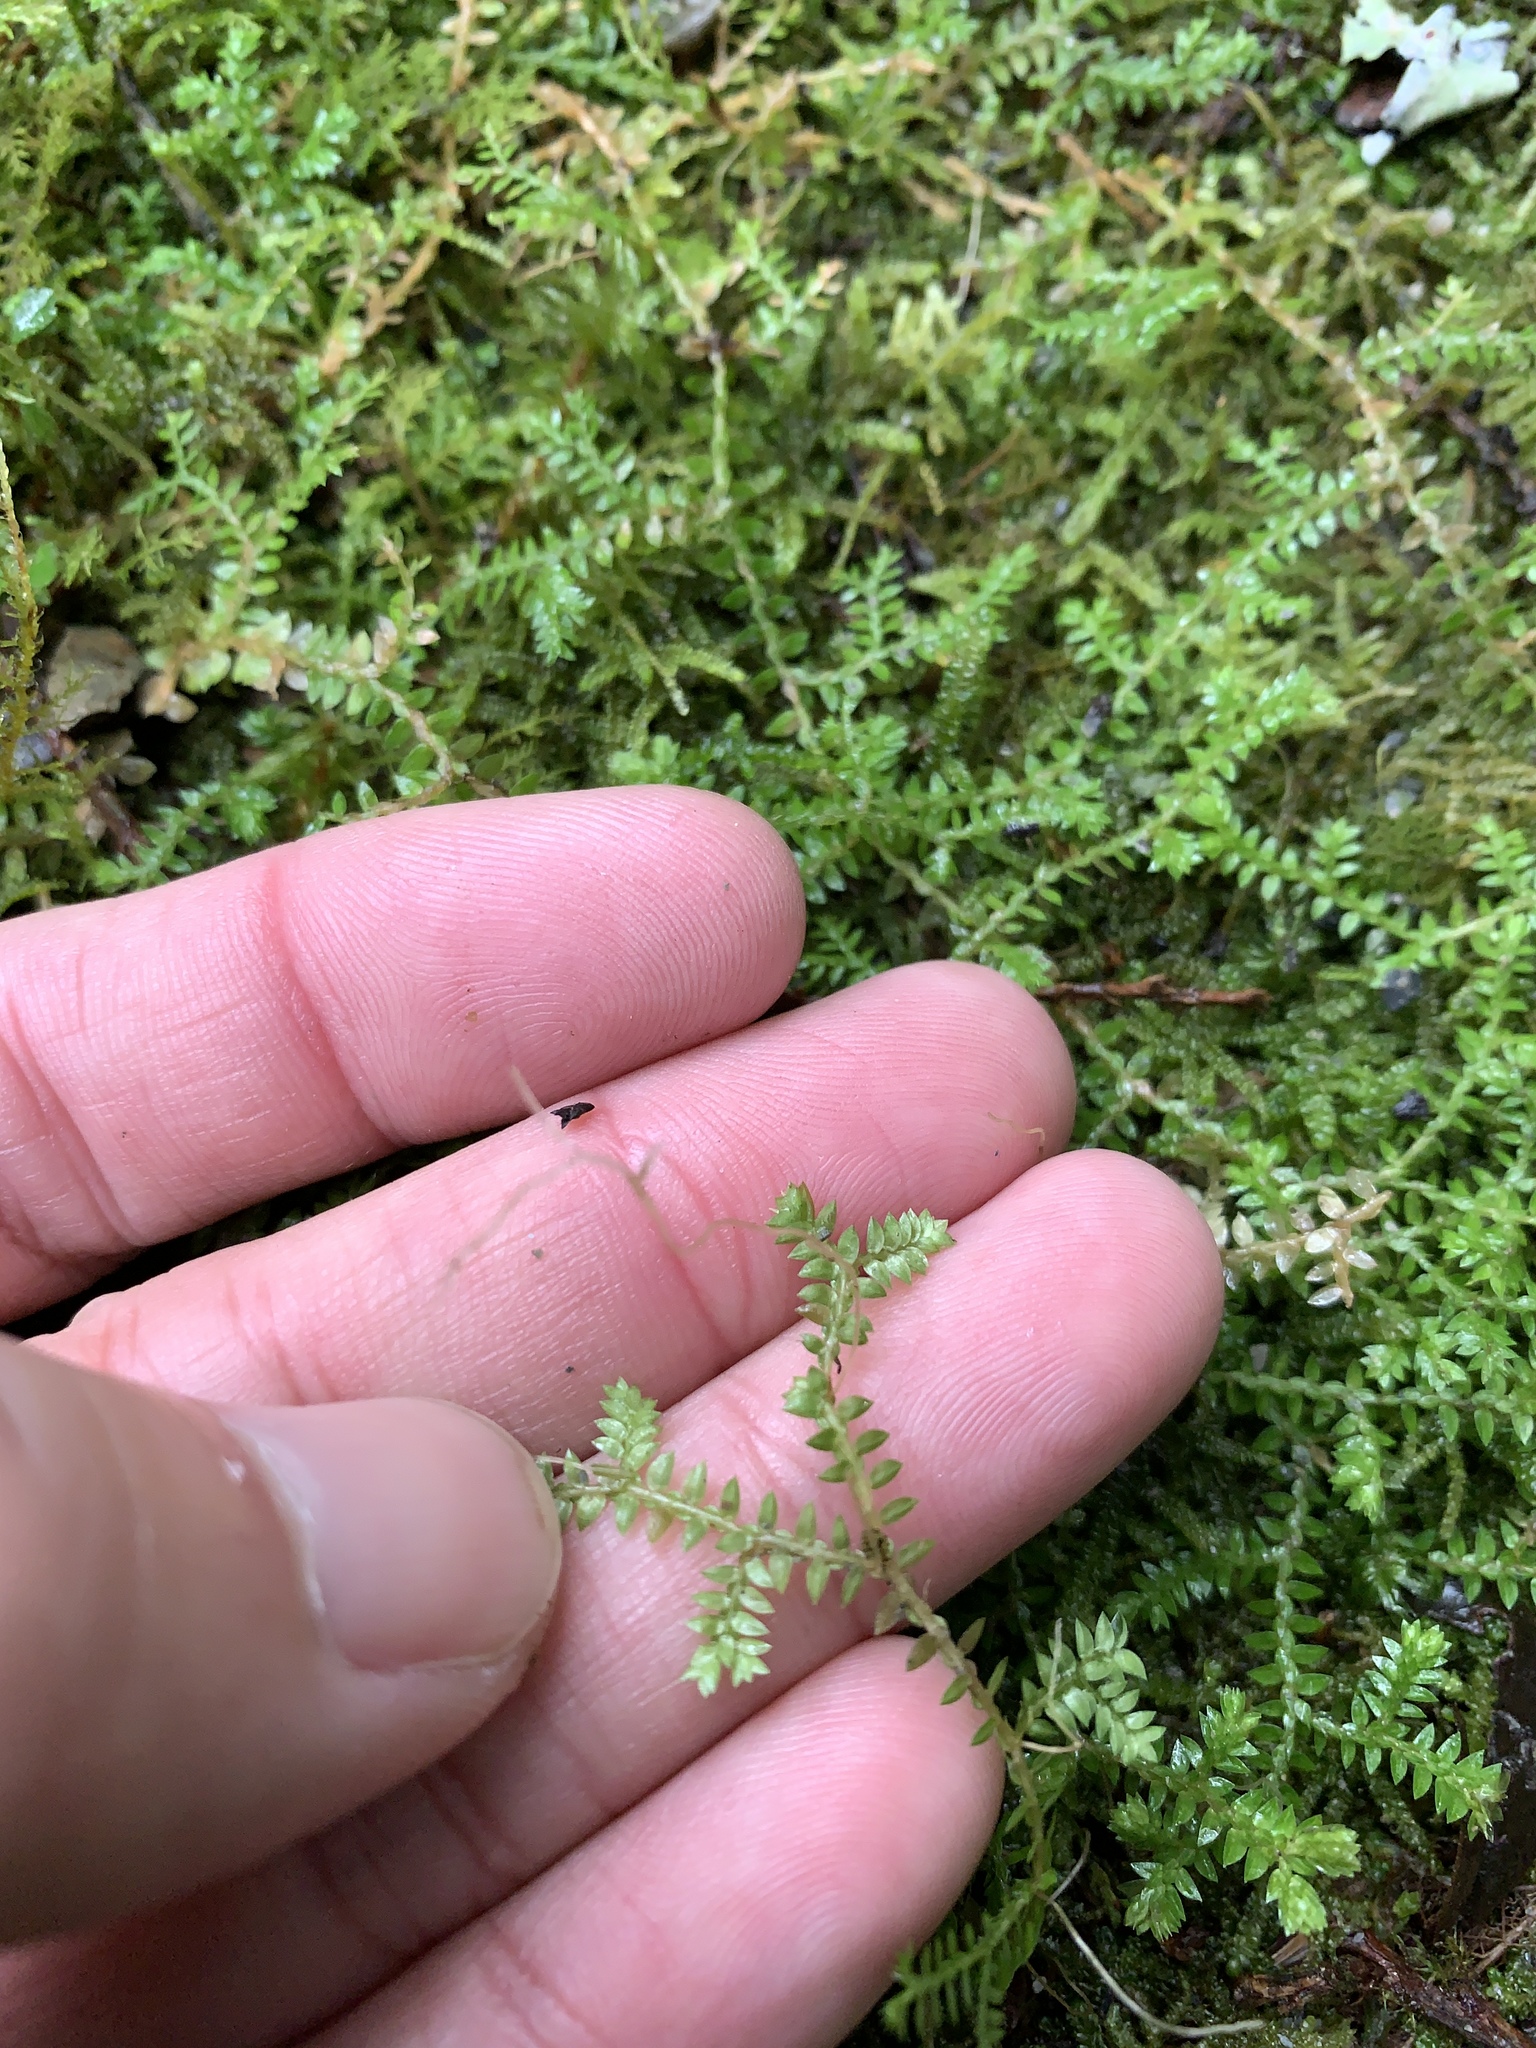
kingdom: Plantae
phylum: Tracheophyta
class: Lycopodiopsida
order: Selaginellales
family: Selaginellaceae
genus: Selaginella
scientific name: Selaginella remotifolia
